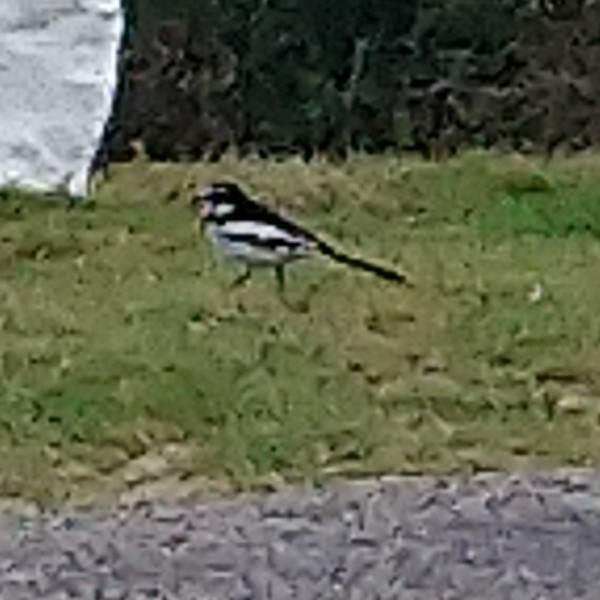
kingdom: Animalia
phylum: Chordata
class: Aves
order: Passeriformes
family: Motacillidae
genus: Motacilla
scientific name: Motacilla aguimp
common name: African pied wagtail
